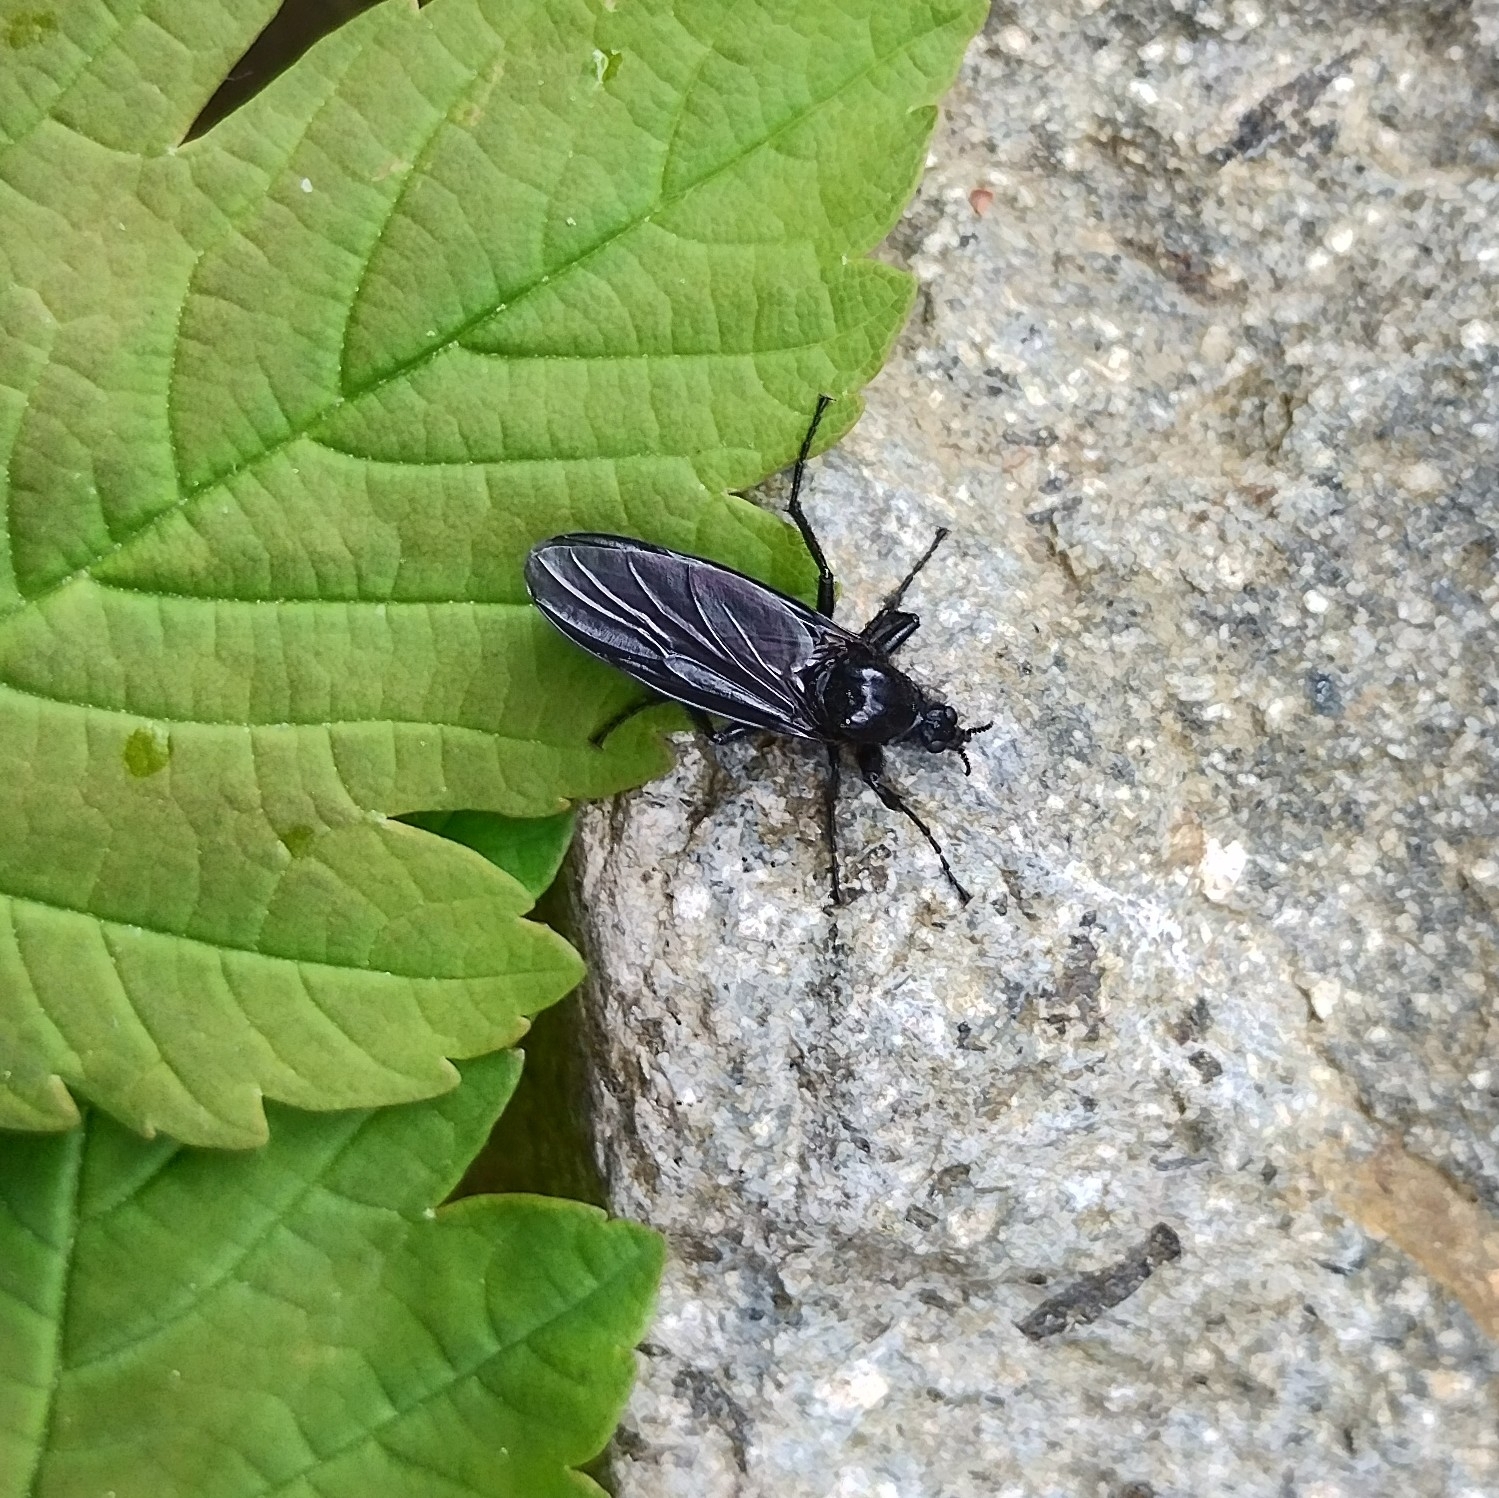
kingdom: Animalia
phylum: Arthropoda
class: Insecta
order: Diptera
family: Bibionidae
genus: Bibio
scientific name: Bibio marci
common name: St marks fly
